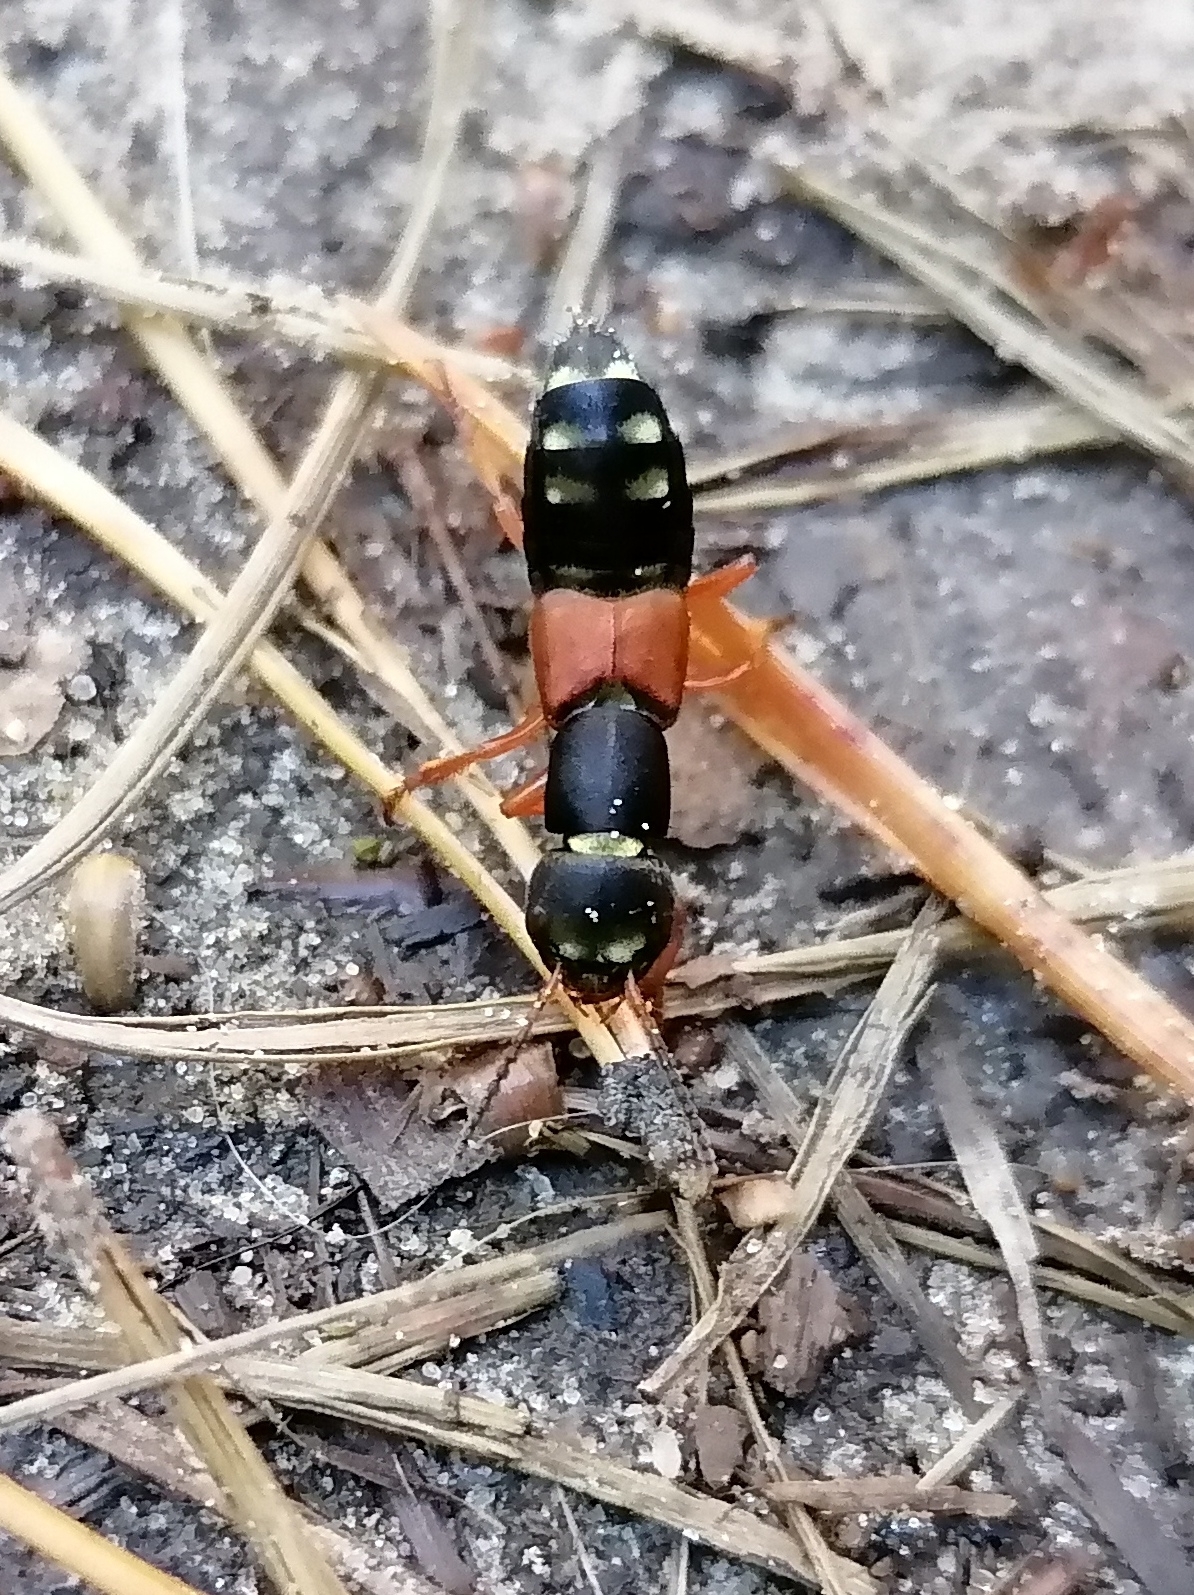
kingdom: Animalia
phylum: Arthropoda
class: Insecta
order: Coleoptera
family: Staphylinidae
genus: Staphylinus
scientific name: Staphylinus erythropterus
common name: Staph beetle
